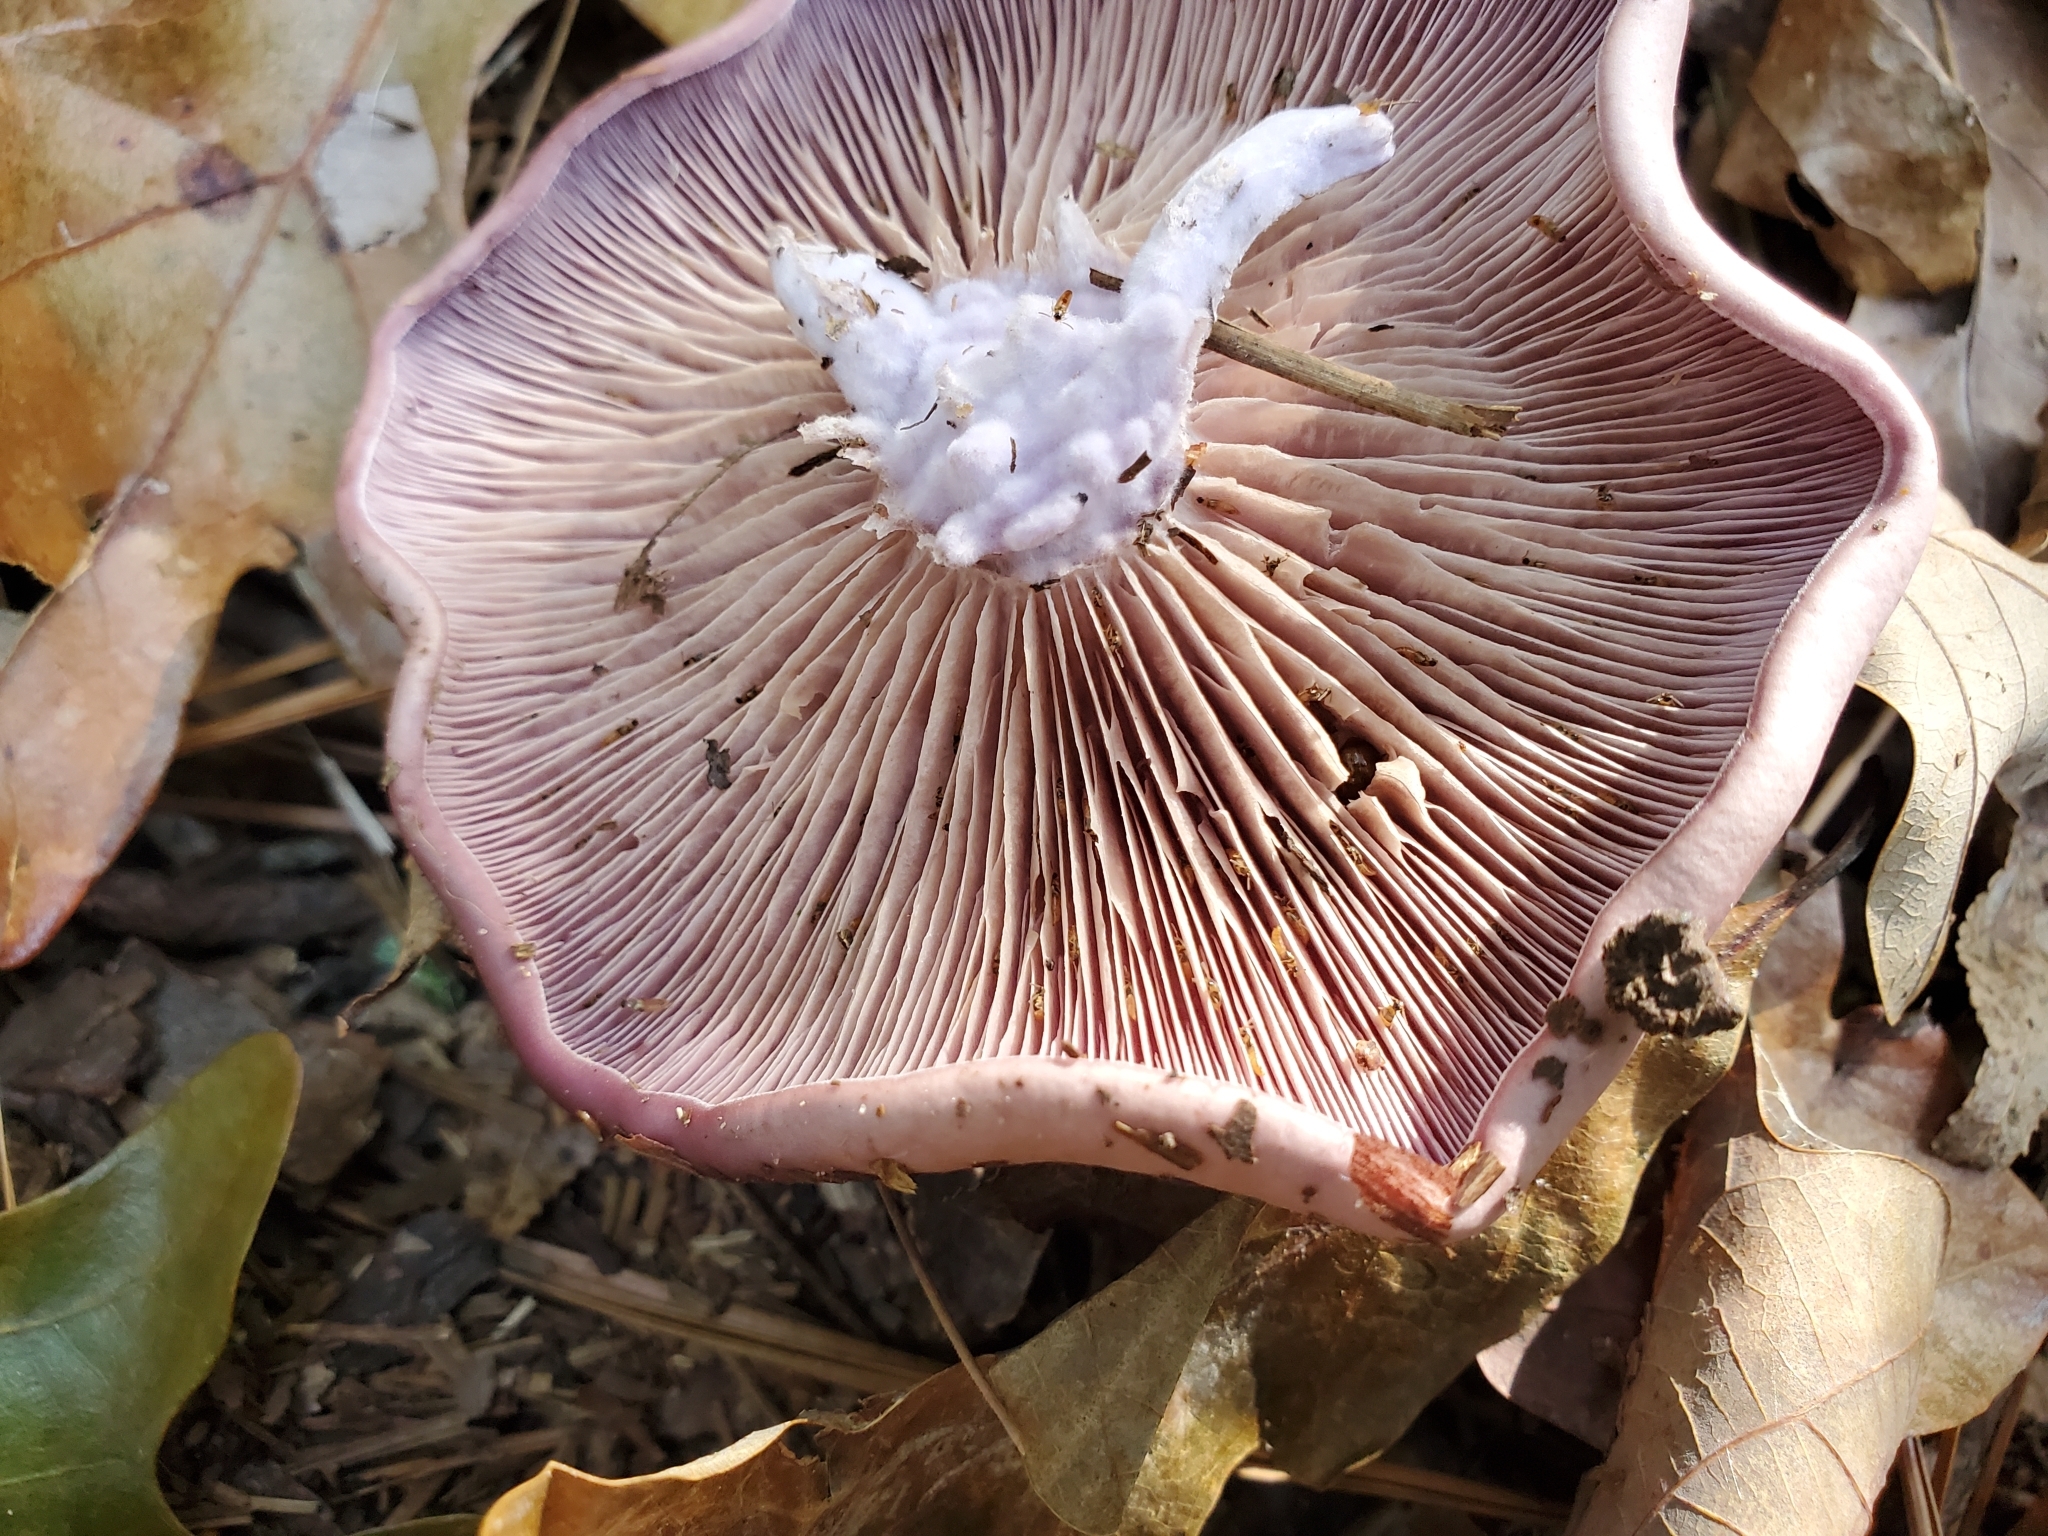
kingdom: Fungi
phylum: Basidiomycota
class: Agaricomycetes
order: Agaricales
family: Tricholomataceae
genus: Collybia
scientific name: Collybia
